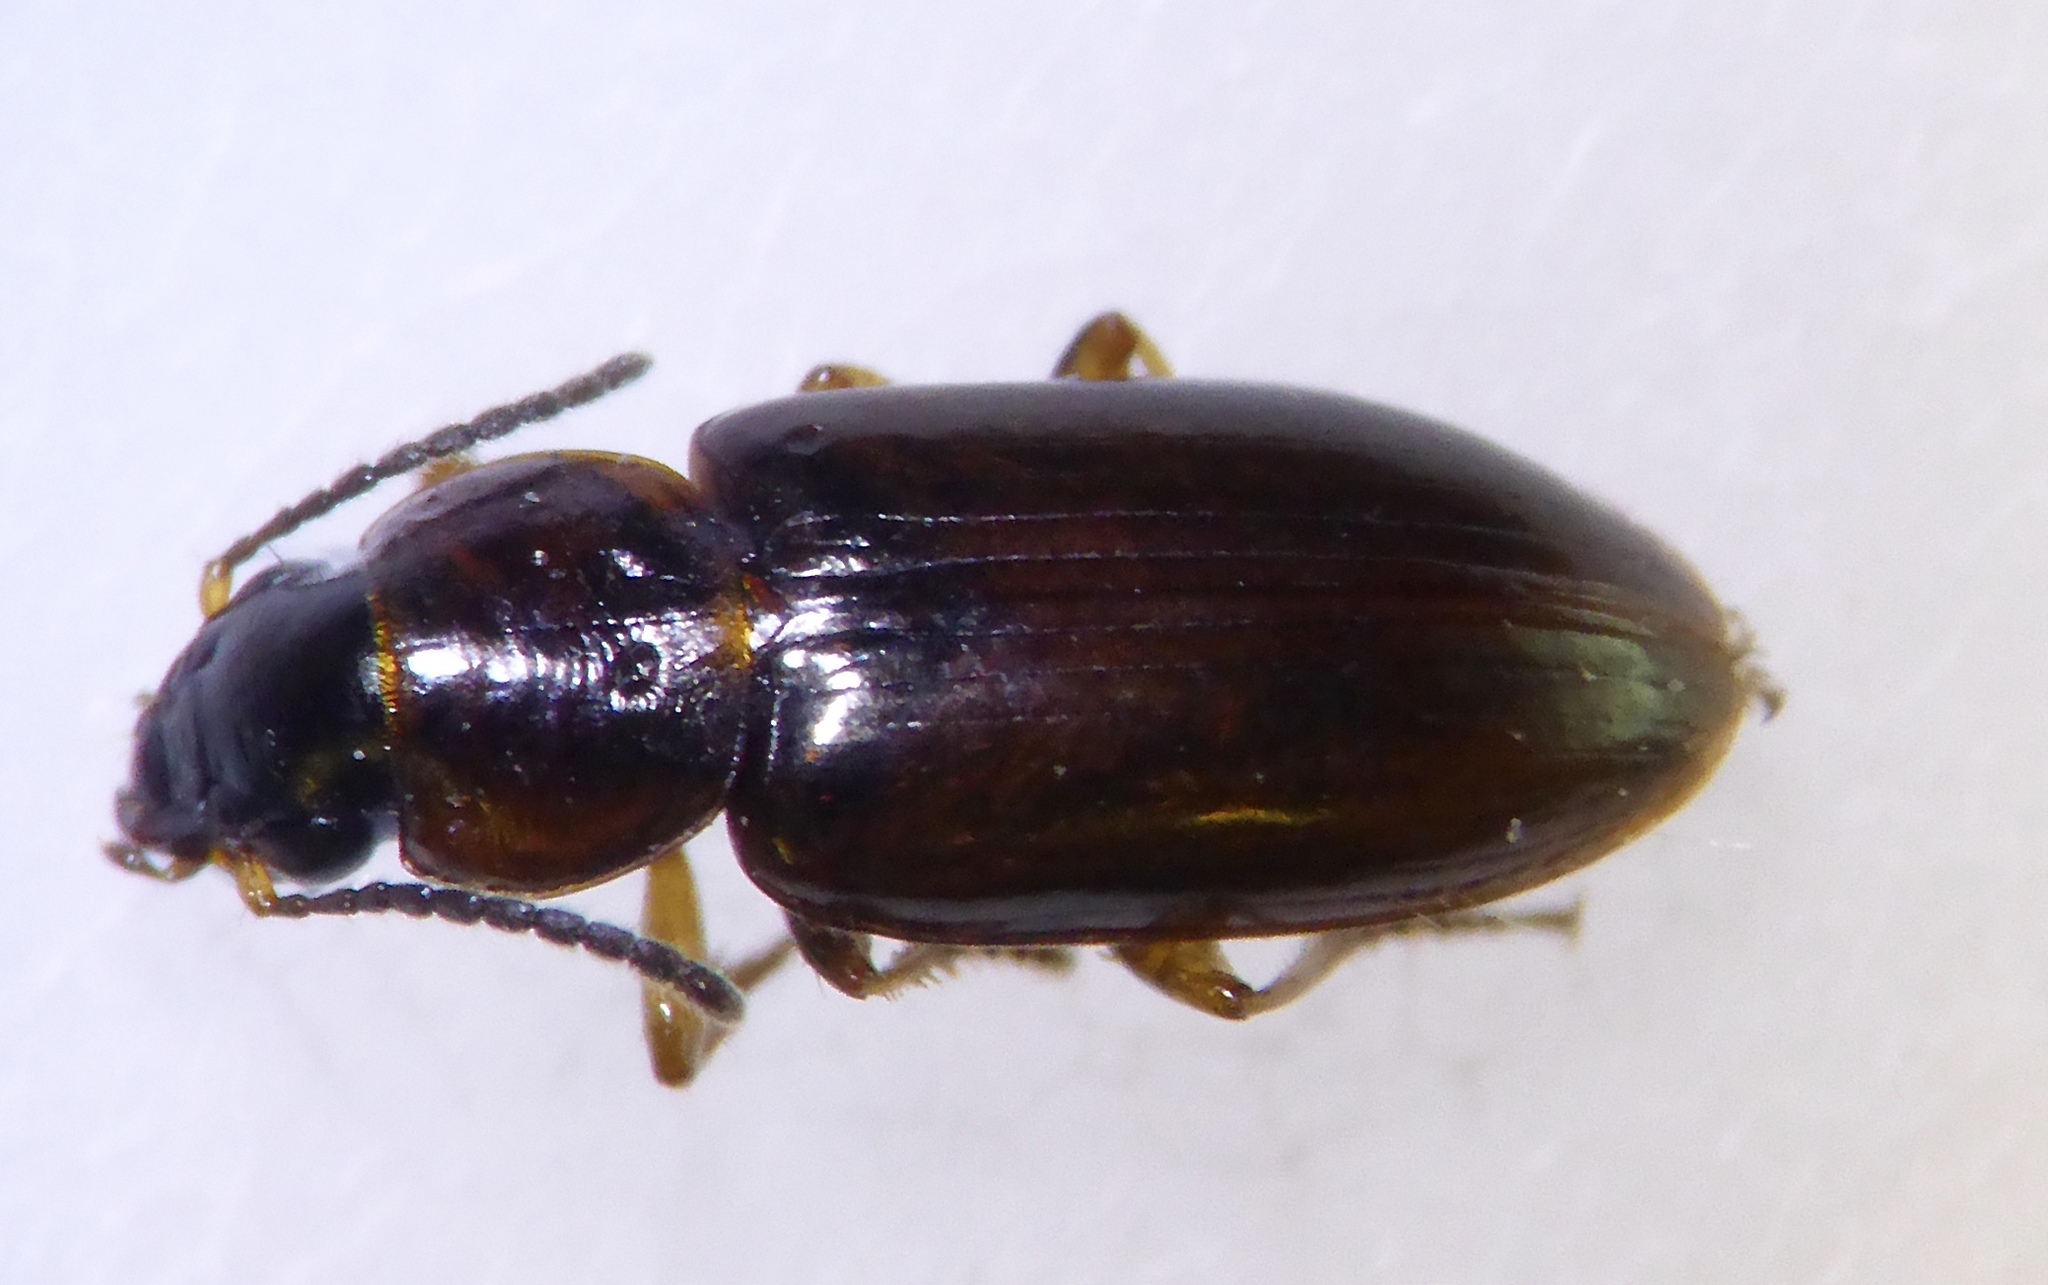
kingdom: Animalia
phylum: Arthropoda
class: Insecta
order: Coleoptera
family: Carabidae
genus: Haplanister
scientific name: Haplanister crypticus
